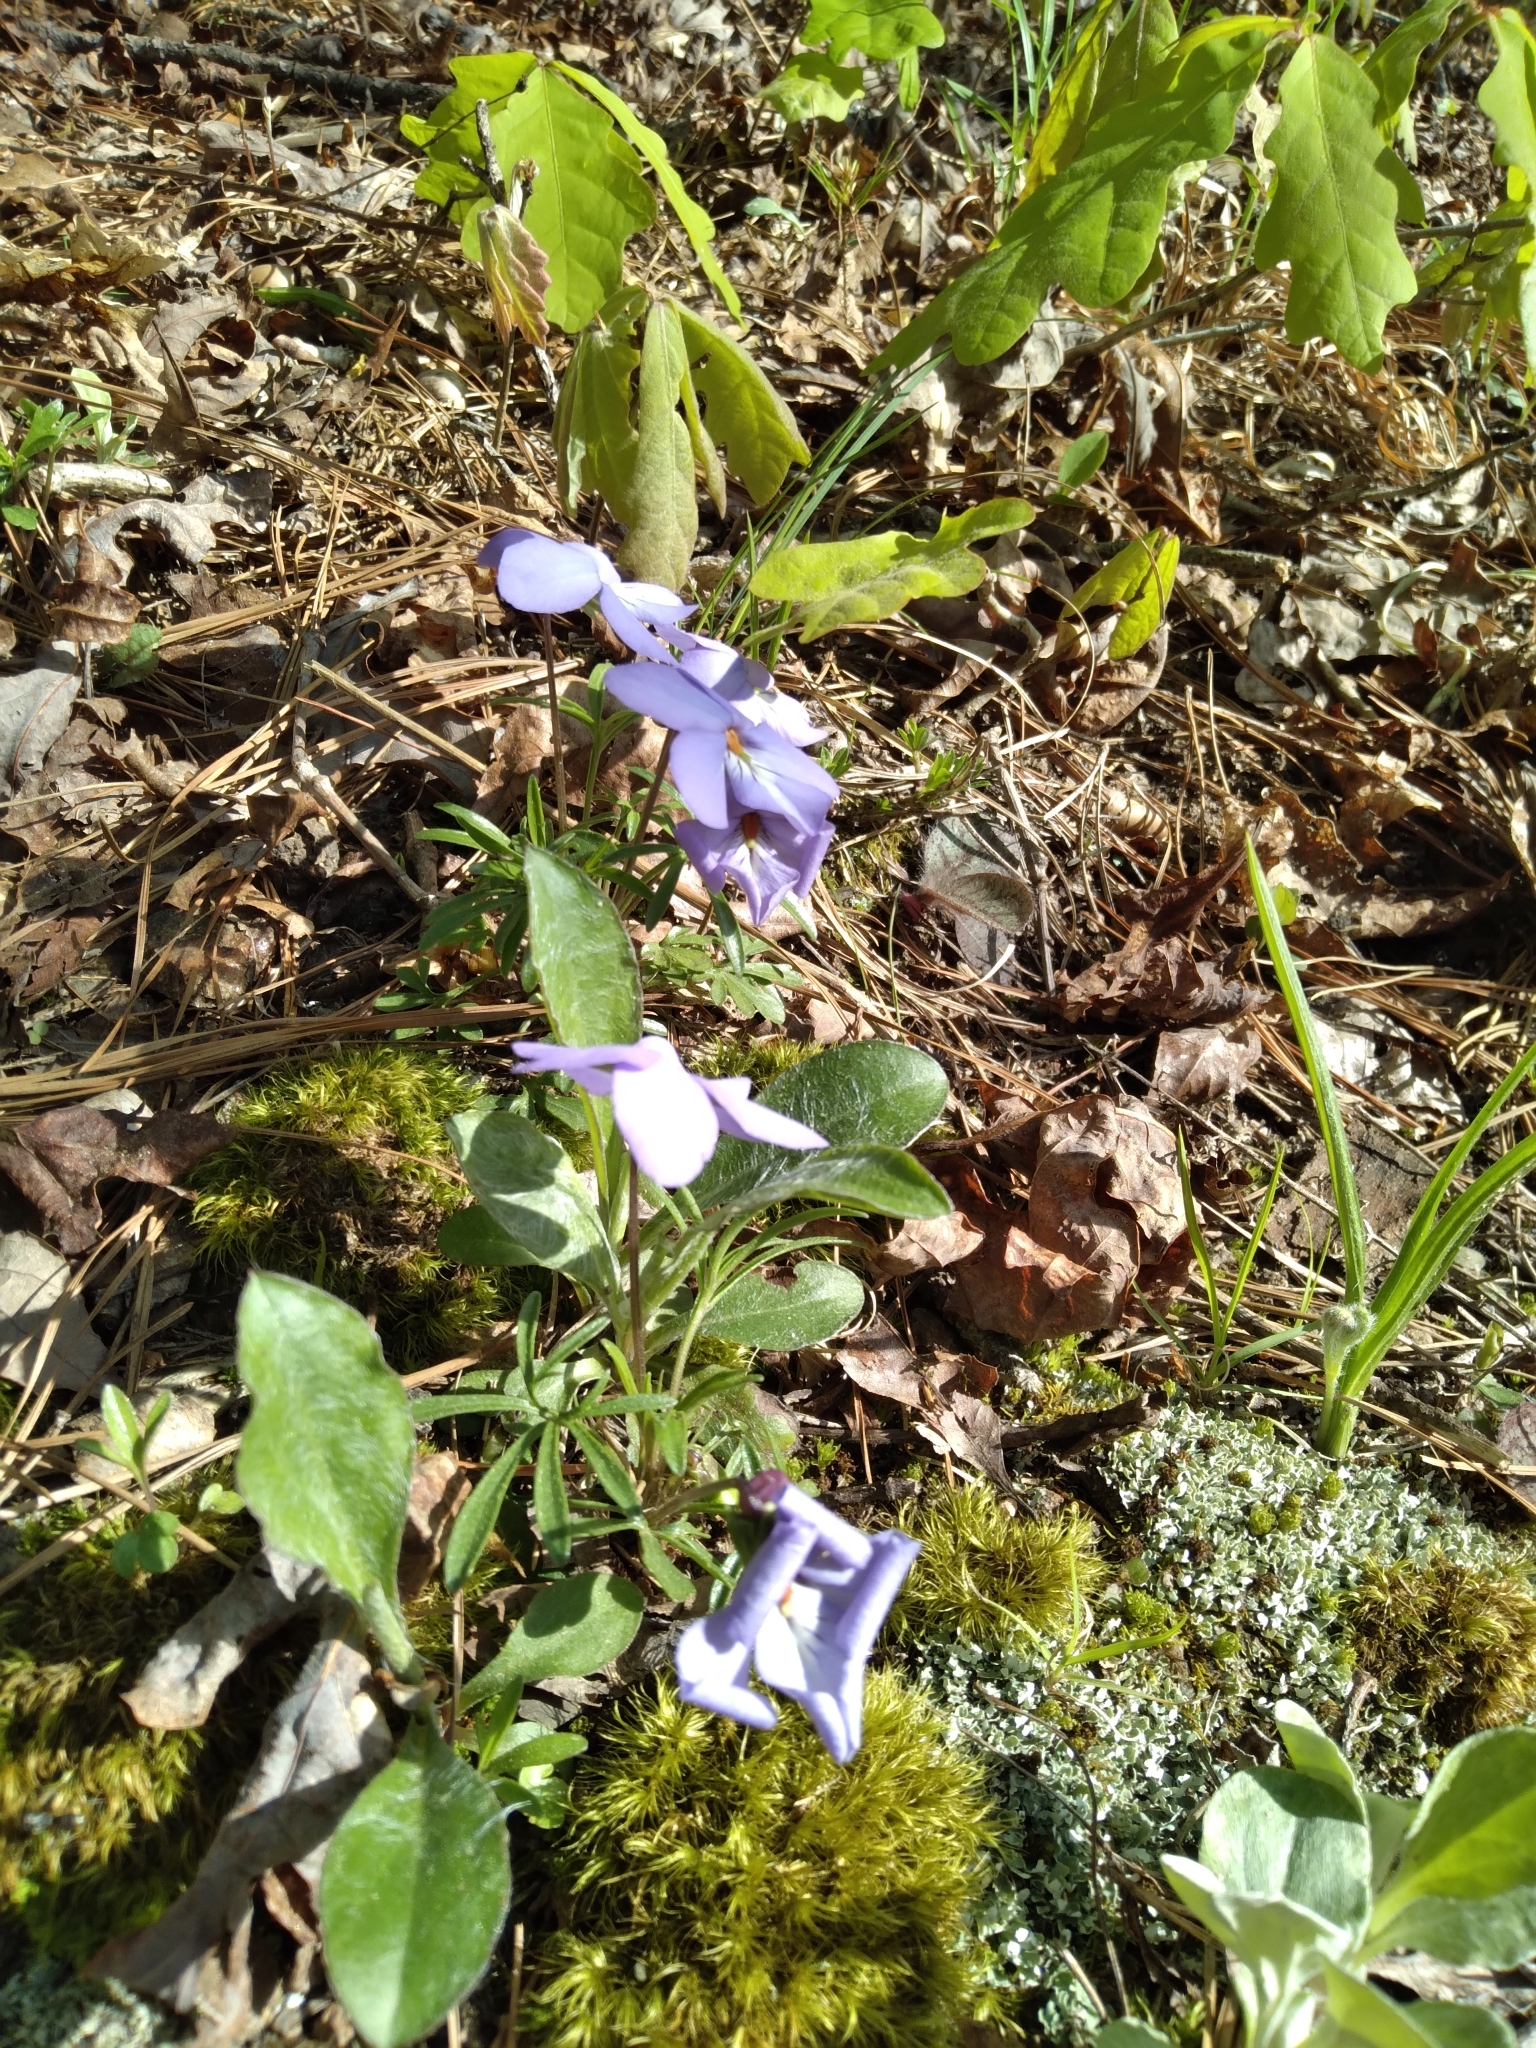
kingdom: Plantae
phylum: Tracheophyta
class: Magnoliopsida
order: Malpighiales
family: Violaceae
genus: Viola
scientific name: Viola pedata
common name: Pansy violet
